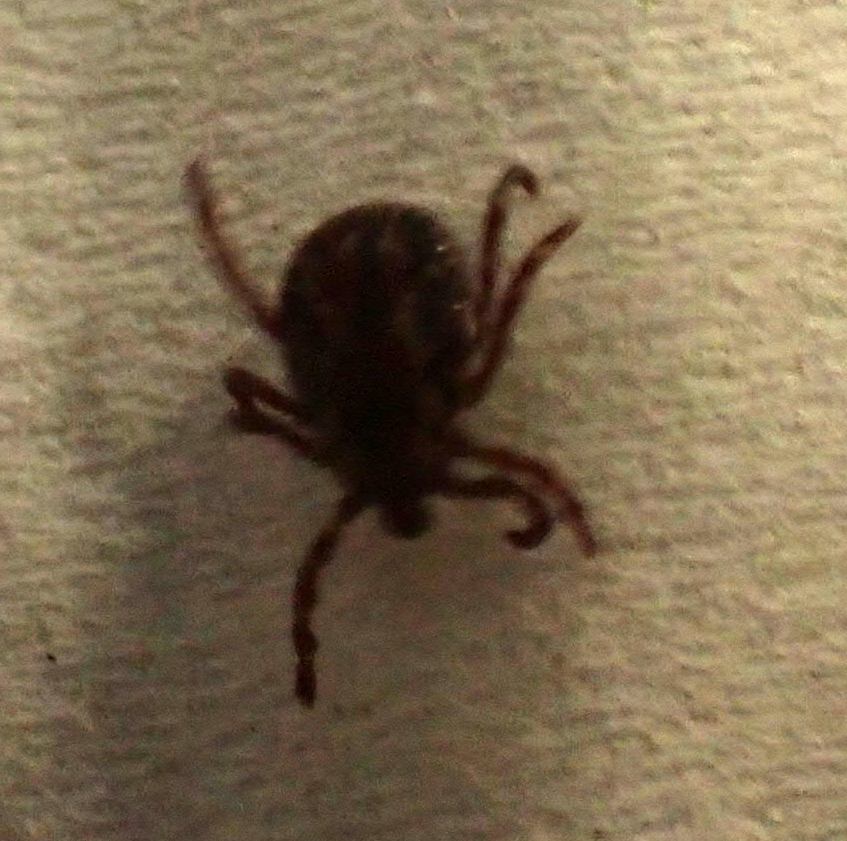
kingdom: Animalia
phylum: Arthropoda
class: Arachnida
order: Ixodida
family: Ixodidae
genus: Dermacentor
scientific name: Dermacentor variabilis
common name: American dog tick
